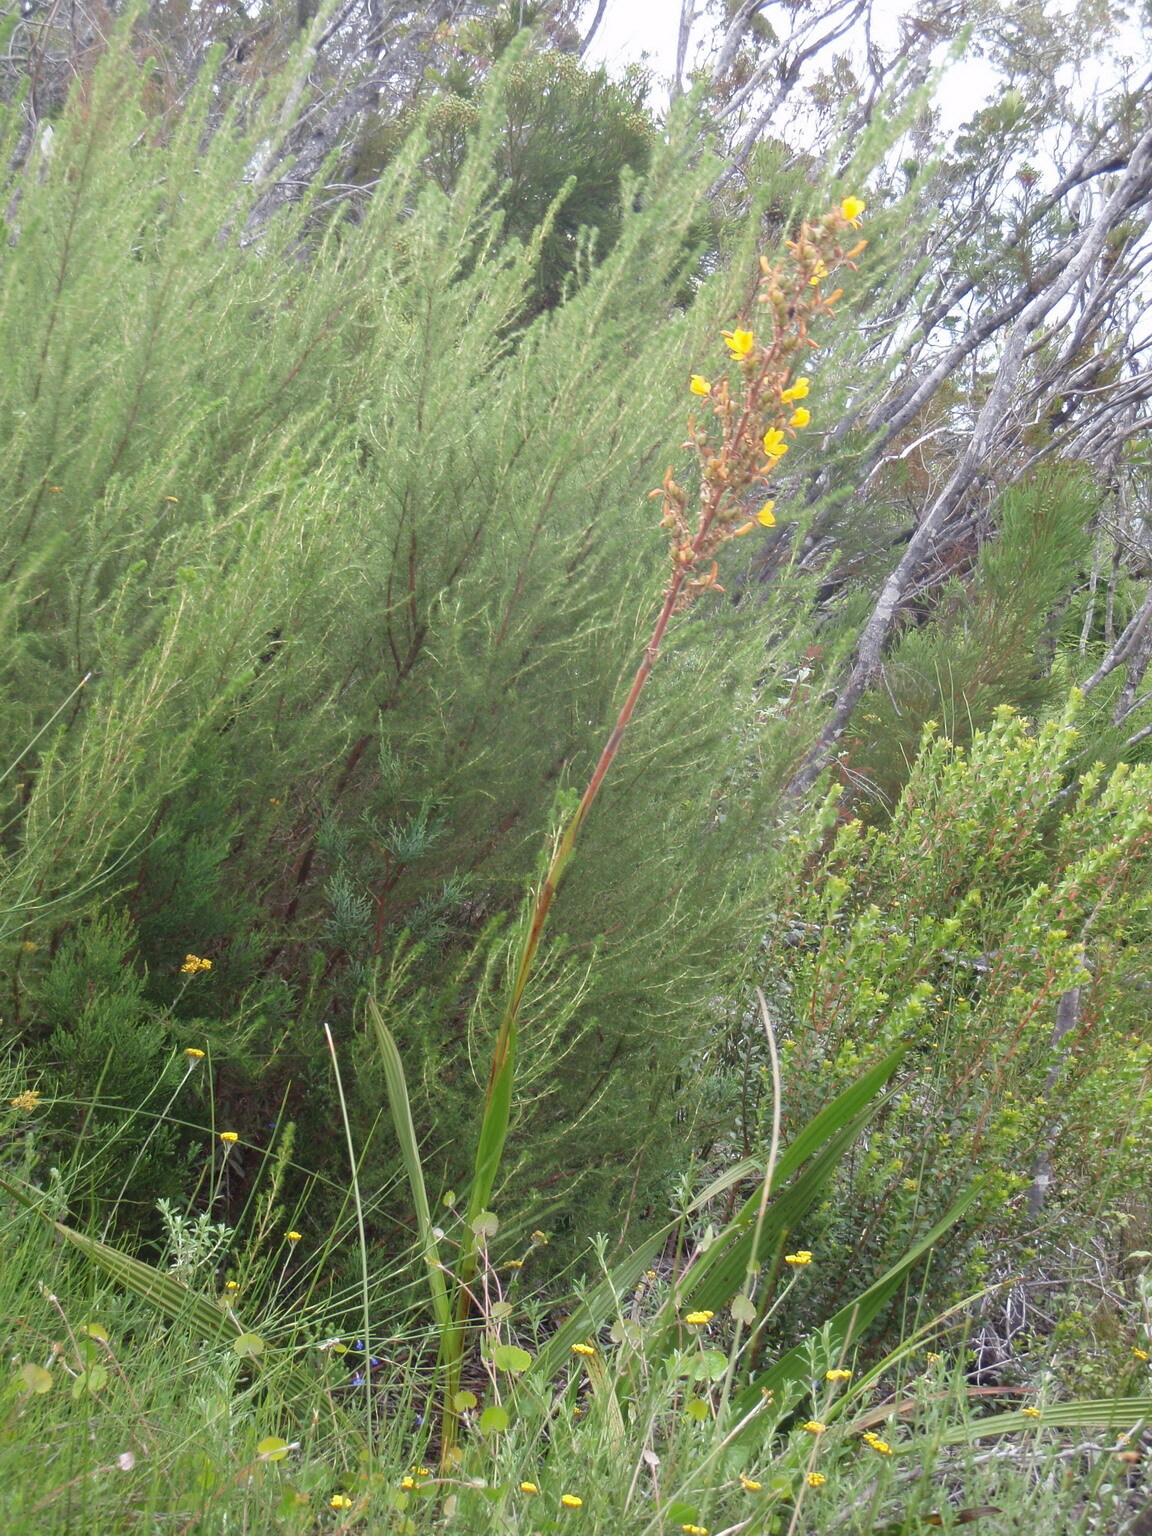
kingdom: Plantae
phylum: Tracheophyta
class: Liliopsida
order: Commelinales
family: Haemodoraceae
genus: Wachendorfia
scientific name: Wachendorfia thyrsiflora
